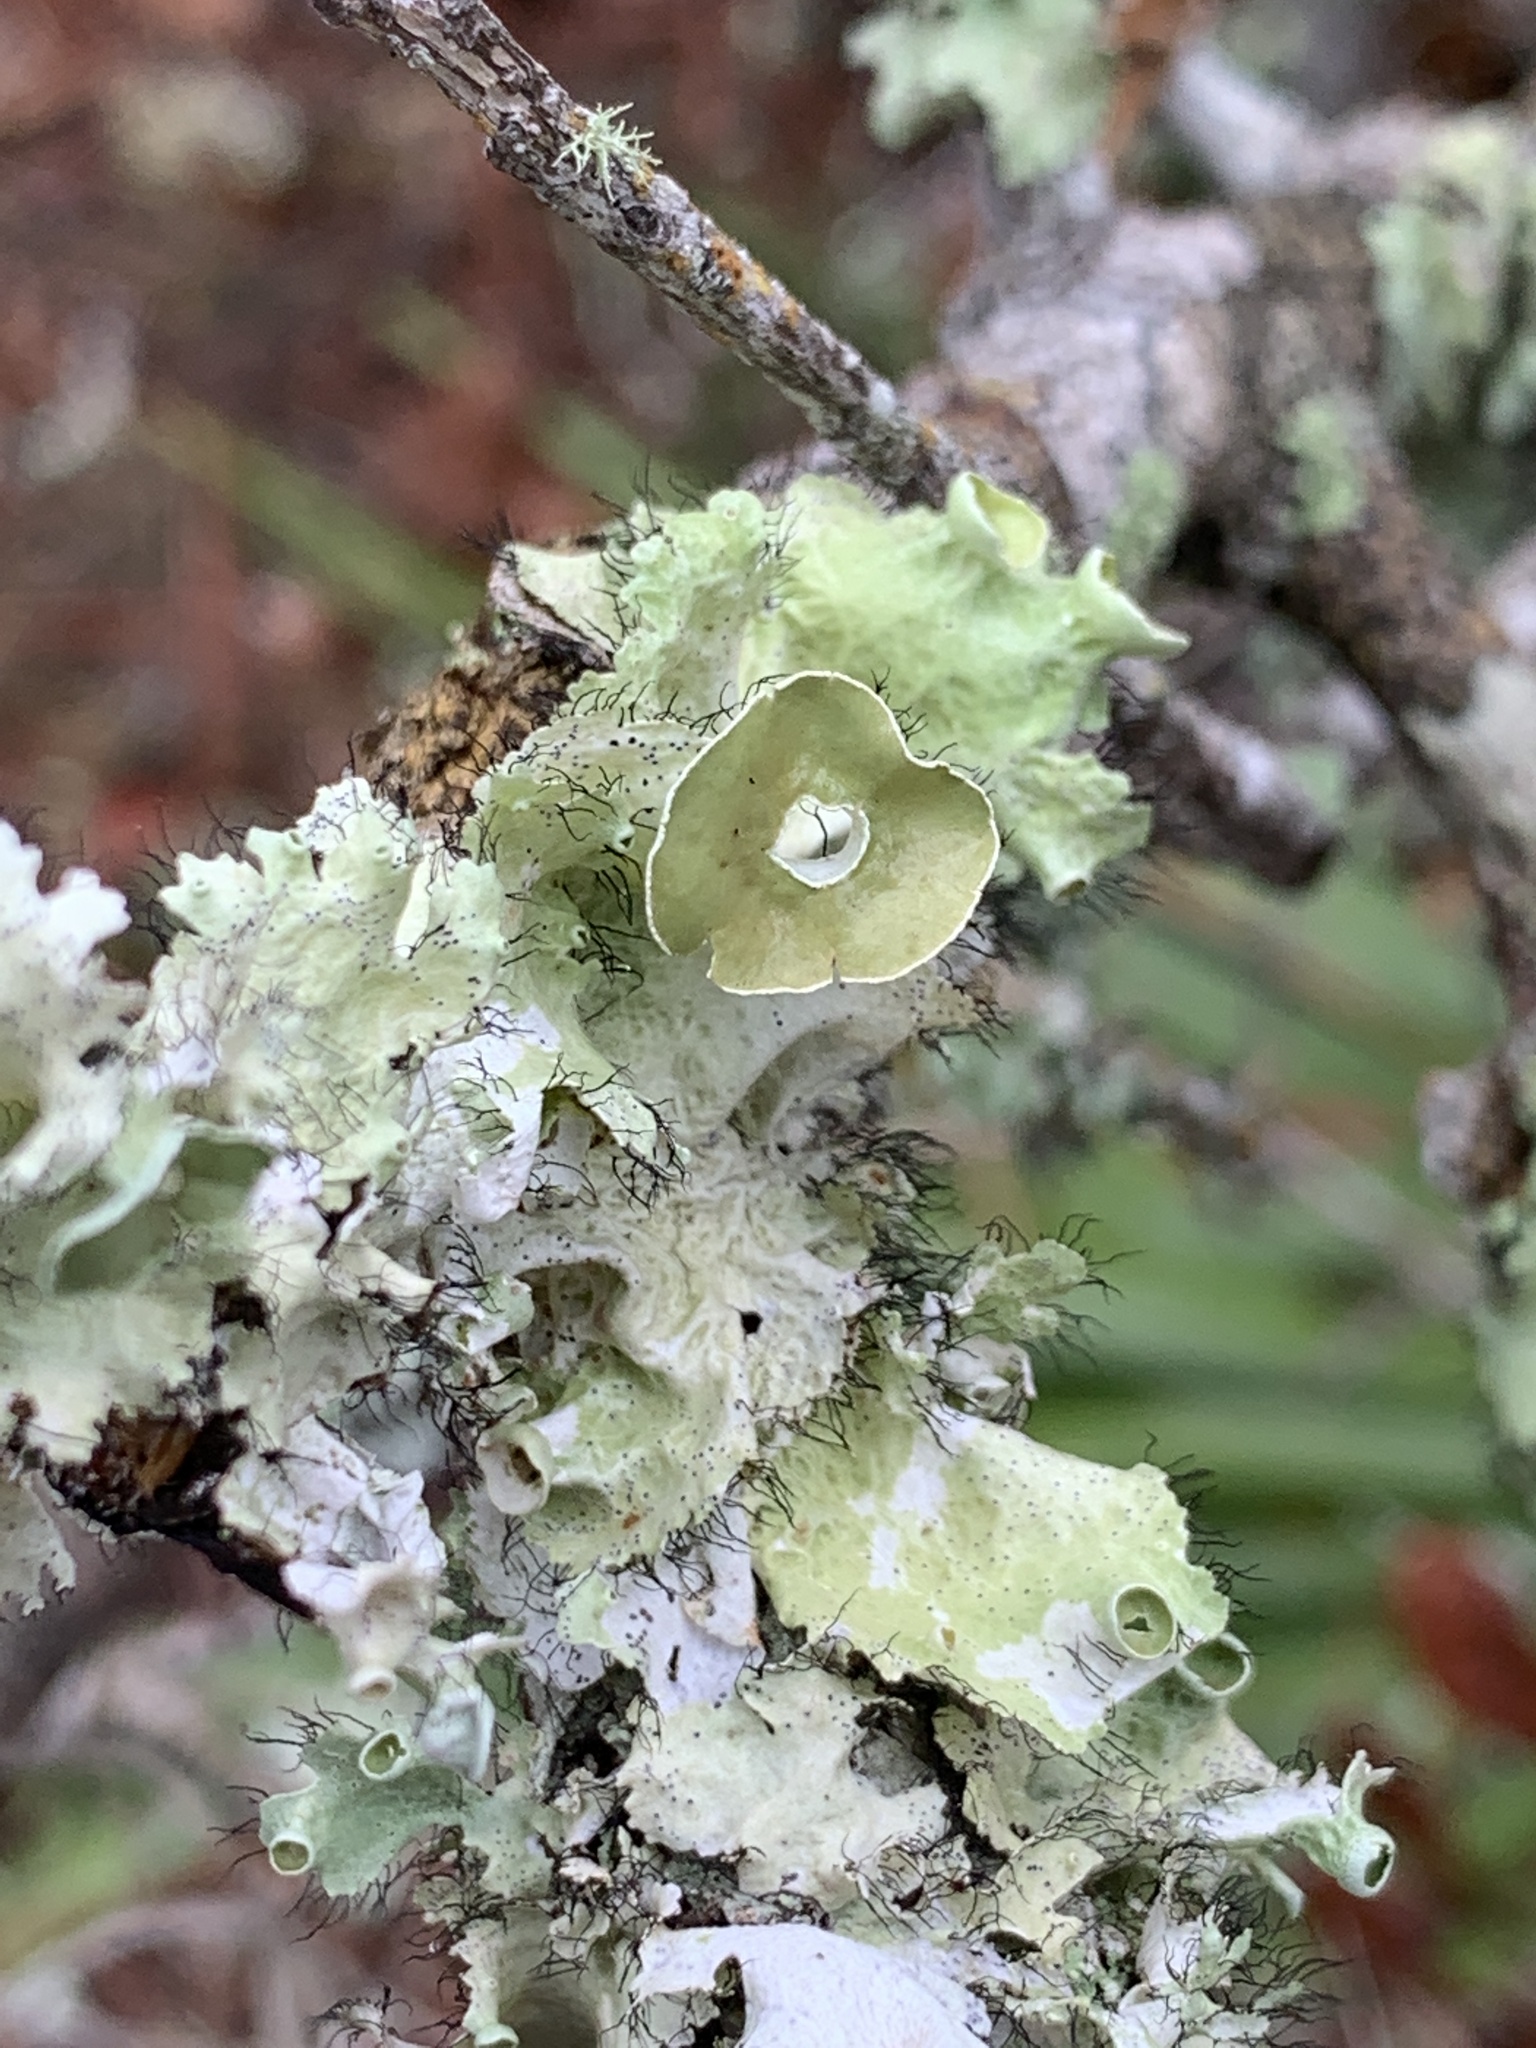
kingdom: Fungi
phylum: Ascomycota
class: Lecanoromycetes
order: Lecanorales
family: Parmeliaceae
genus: Parmotrema
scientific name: Parmotrema perforatum
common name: Perforated ruffle lichen
